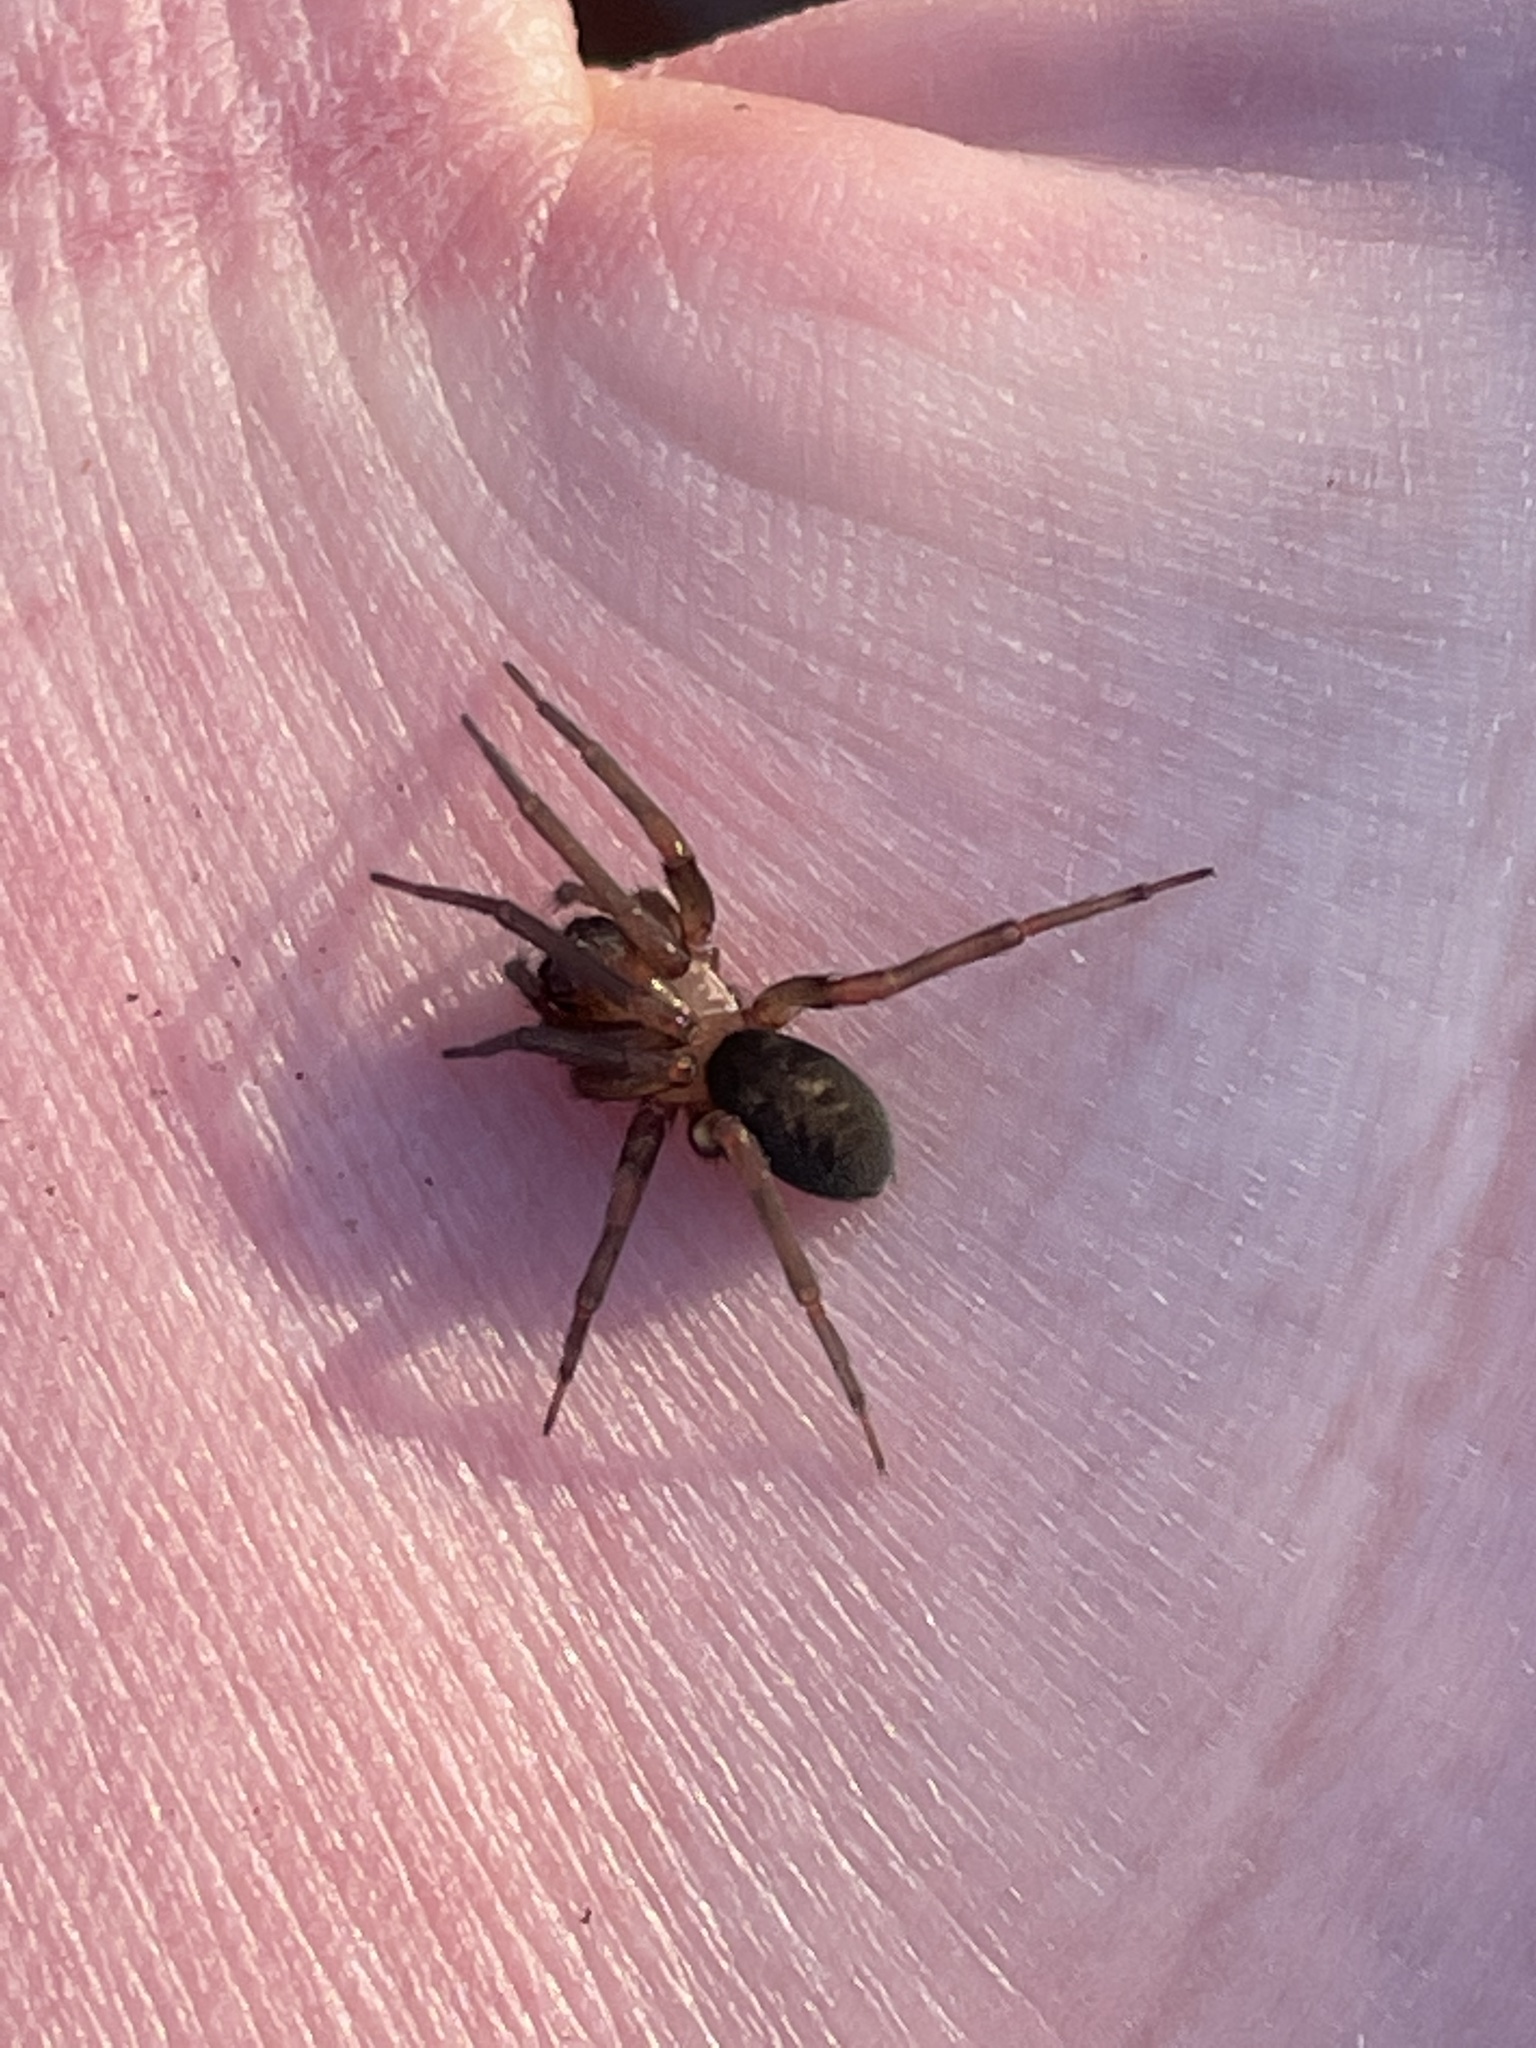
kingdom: Animalia
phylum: Arthropoda
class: Arachnida
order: Araneae
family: Desidae
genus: Metaltella
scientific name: Metaltella simoni
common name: Cribellate spider
